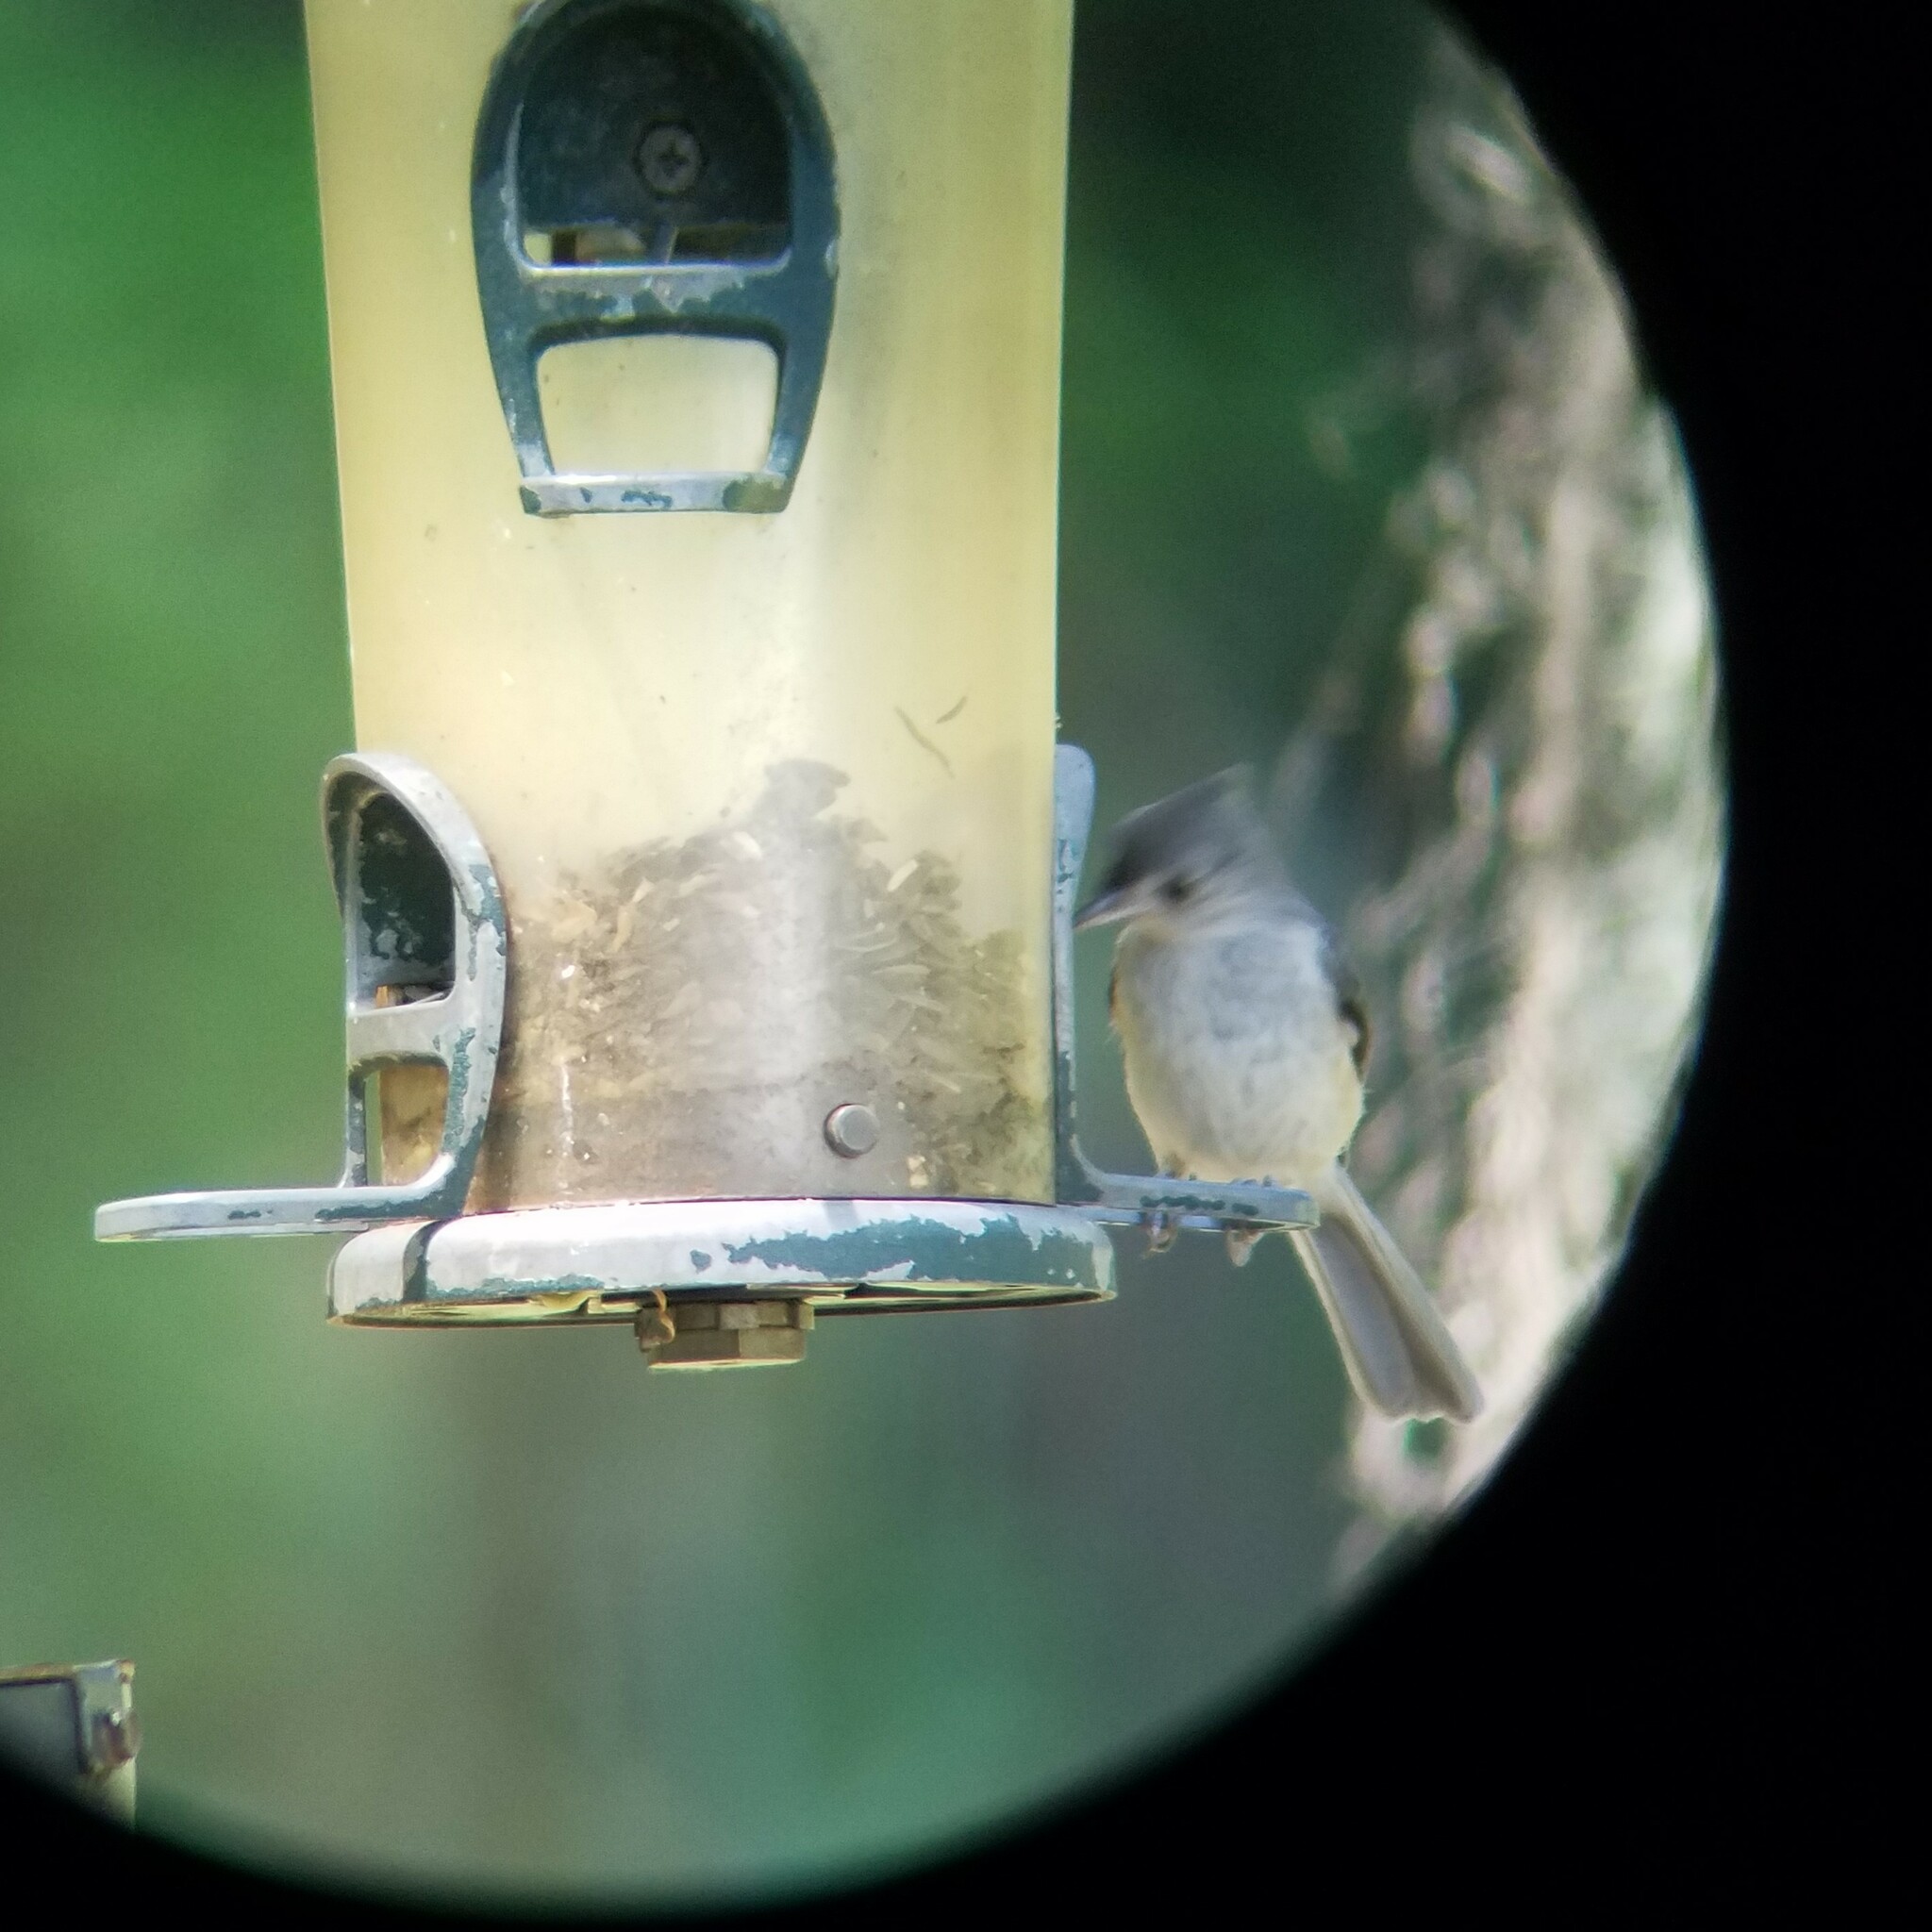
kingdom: Animalia
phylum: Chordata
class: Aves
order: Passeriformes
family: Paridae
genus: Baeolophus
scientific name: Baeolophus bicolor
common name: Tufted titmouse
